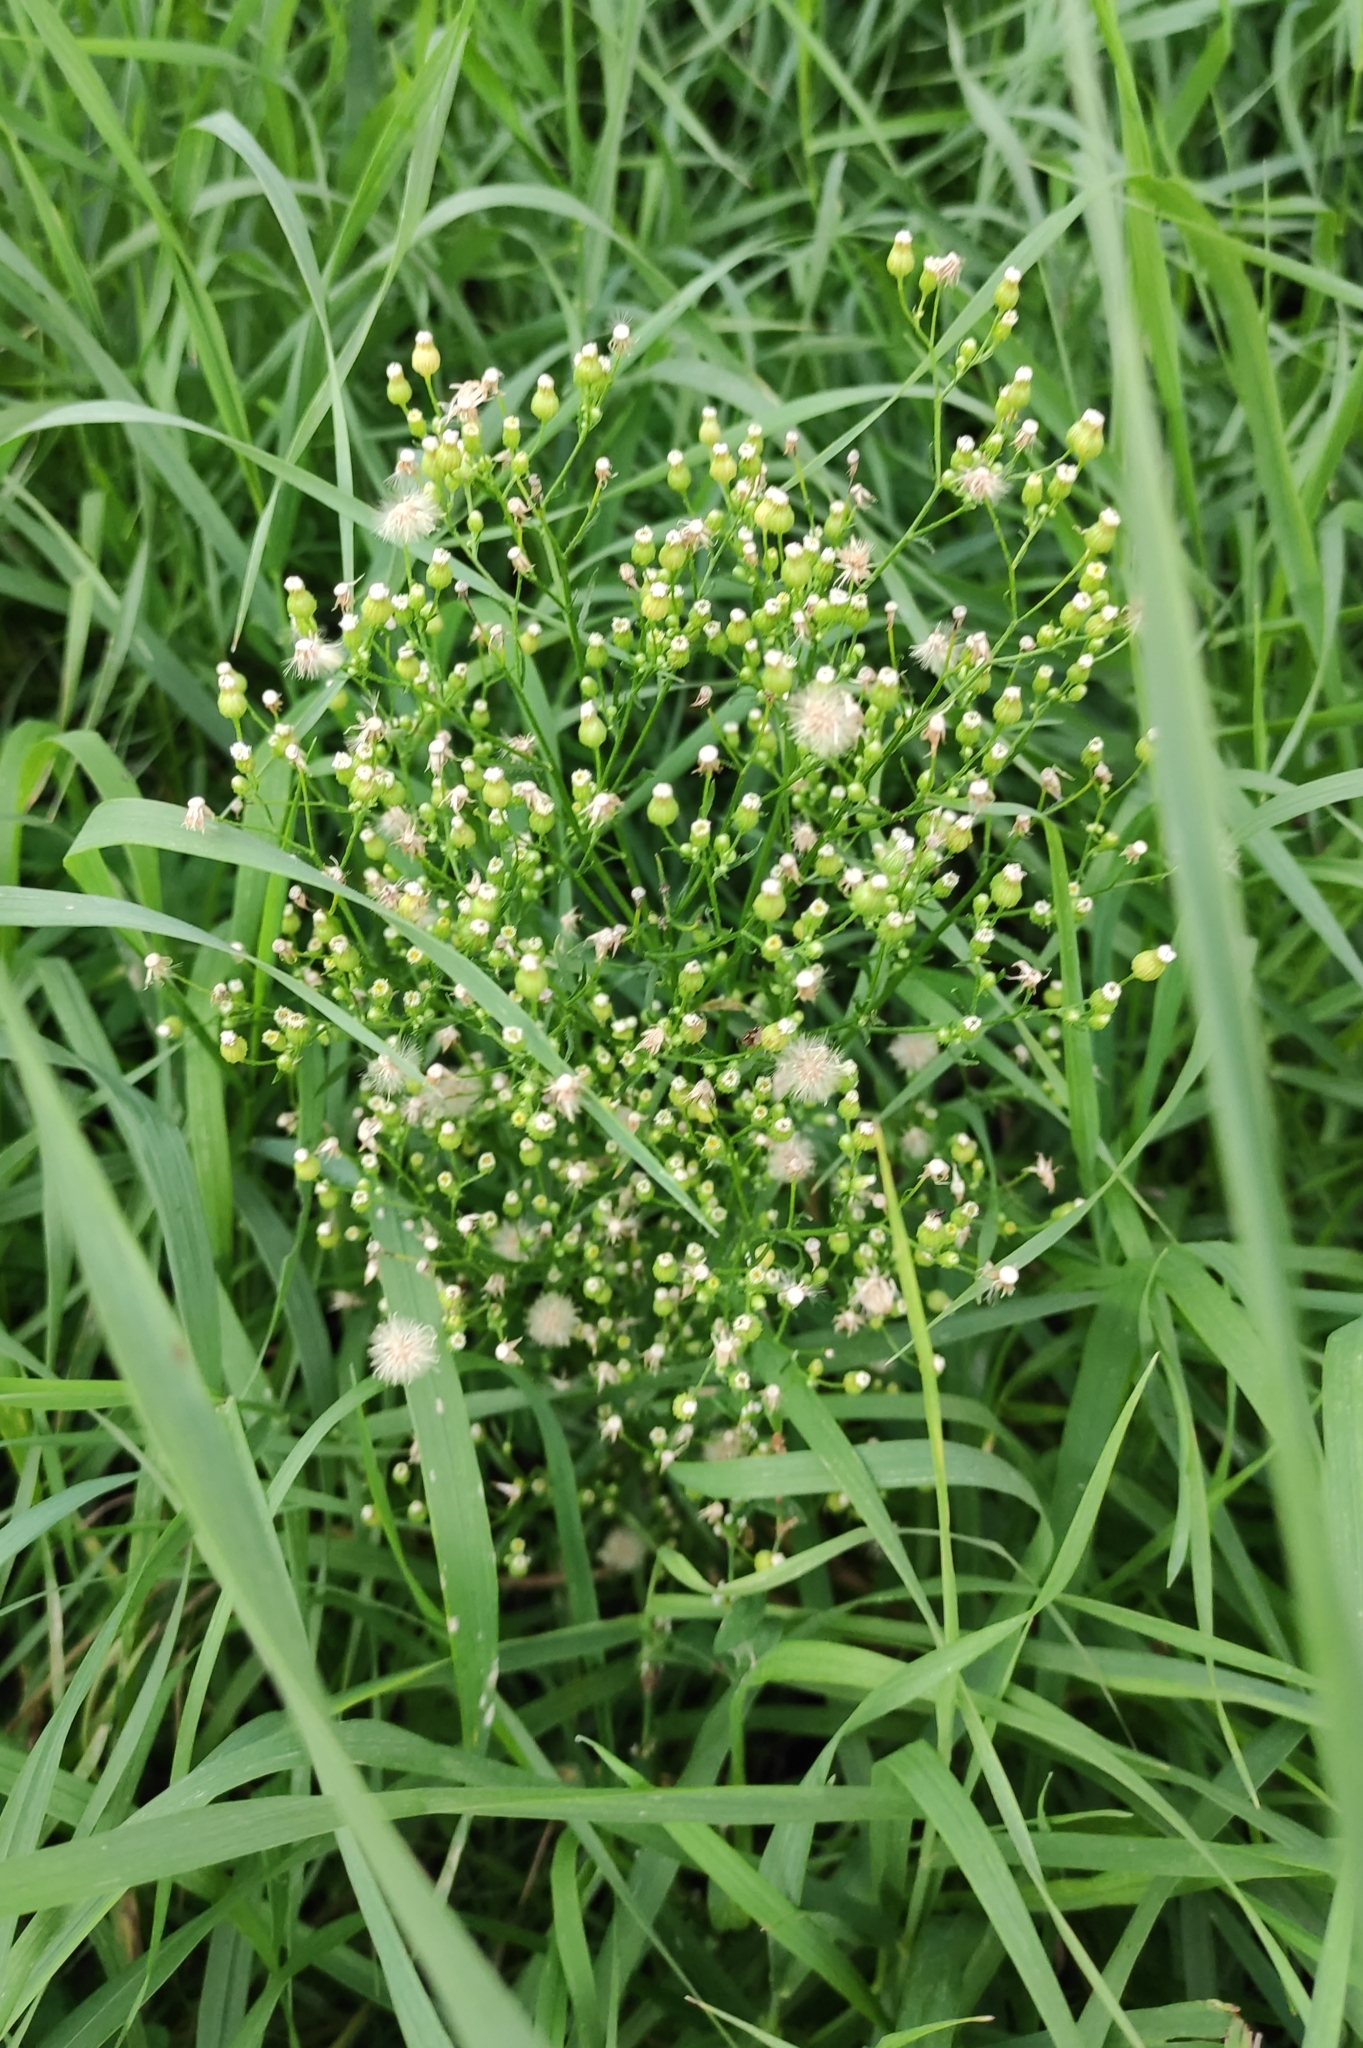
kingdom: Plantae
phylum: Tracheophyta
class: Magnoliopsida
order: Asterales
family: Asteraceae
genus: Erigeron
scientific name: Erigeron canadensis
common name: Canadian fleabane
